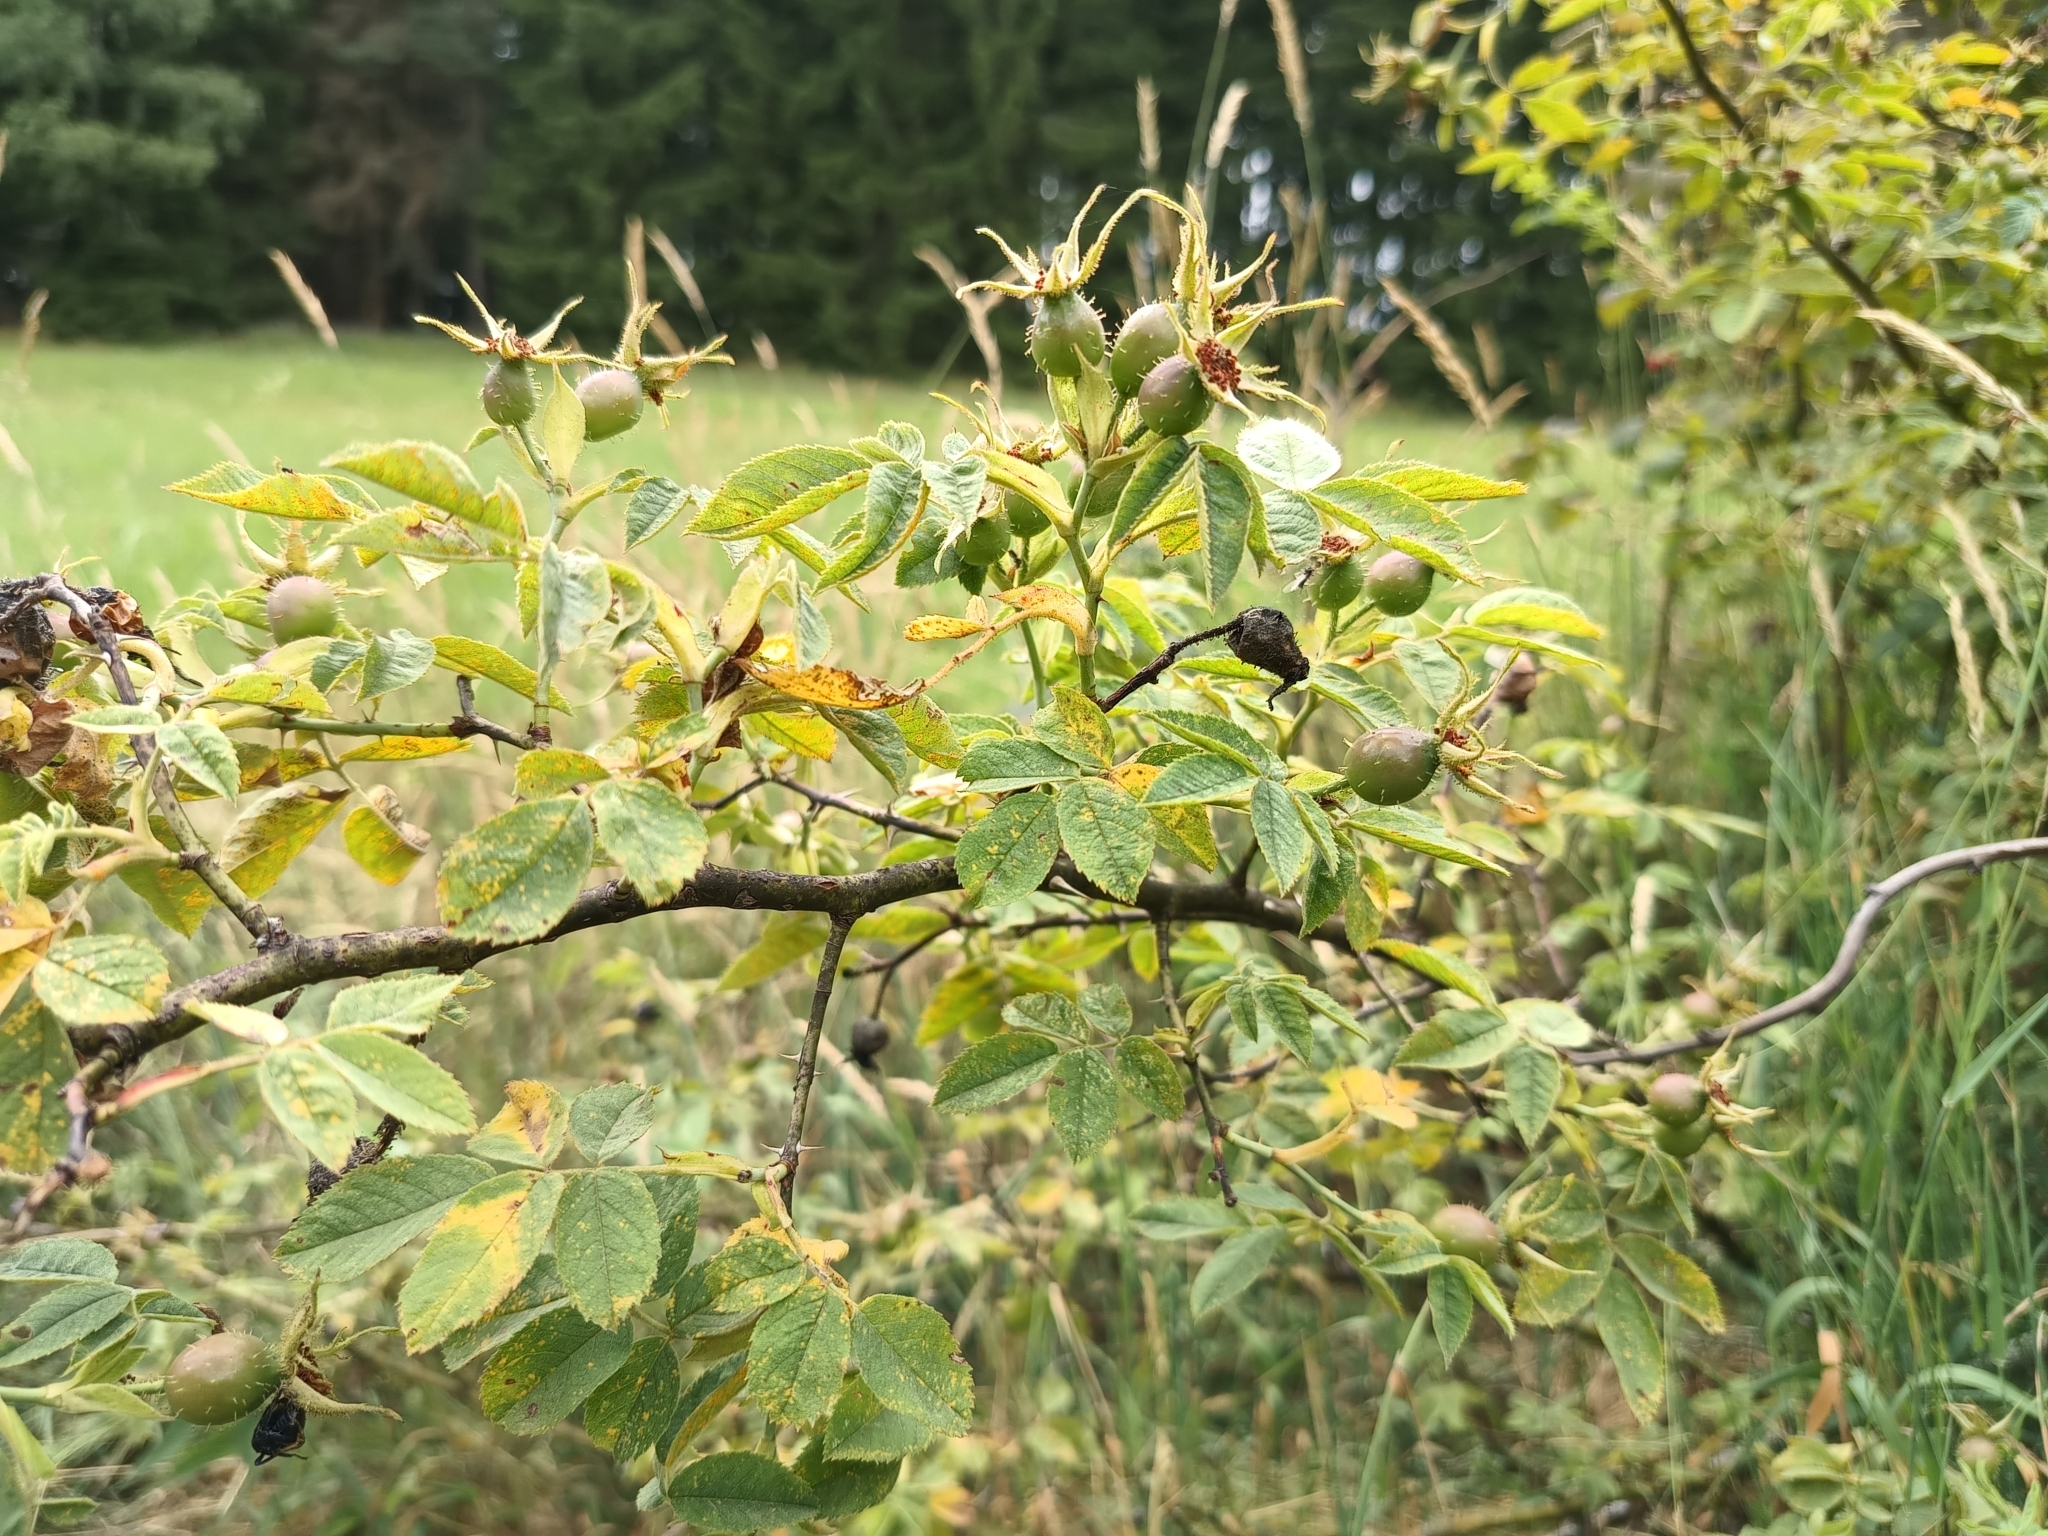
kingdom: Plantae
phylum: Tracheophyta
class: Magnoliopsida
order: Rosales
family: Rosaceae
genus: Rosa
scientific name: Rosa sherardii
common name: Sherard's downy rose
